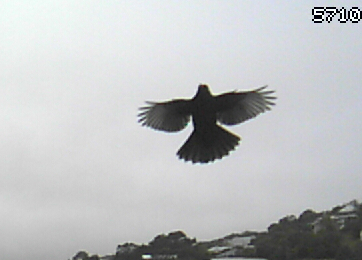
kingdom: Animalia
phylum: Chordata
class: Aves
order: Passeriformes
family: Turdidae
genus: Turdus
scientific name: Turdus merula
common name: Common blackbird
